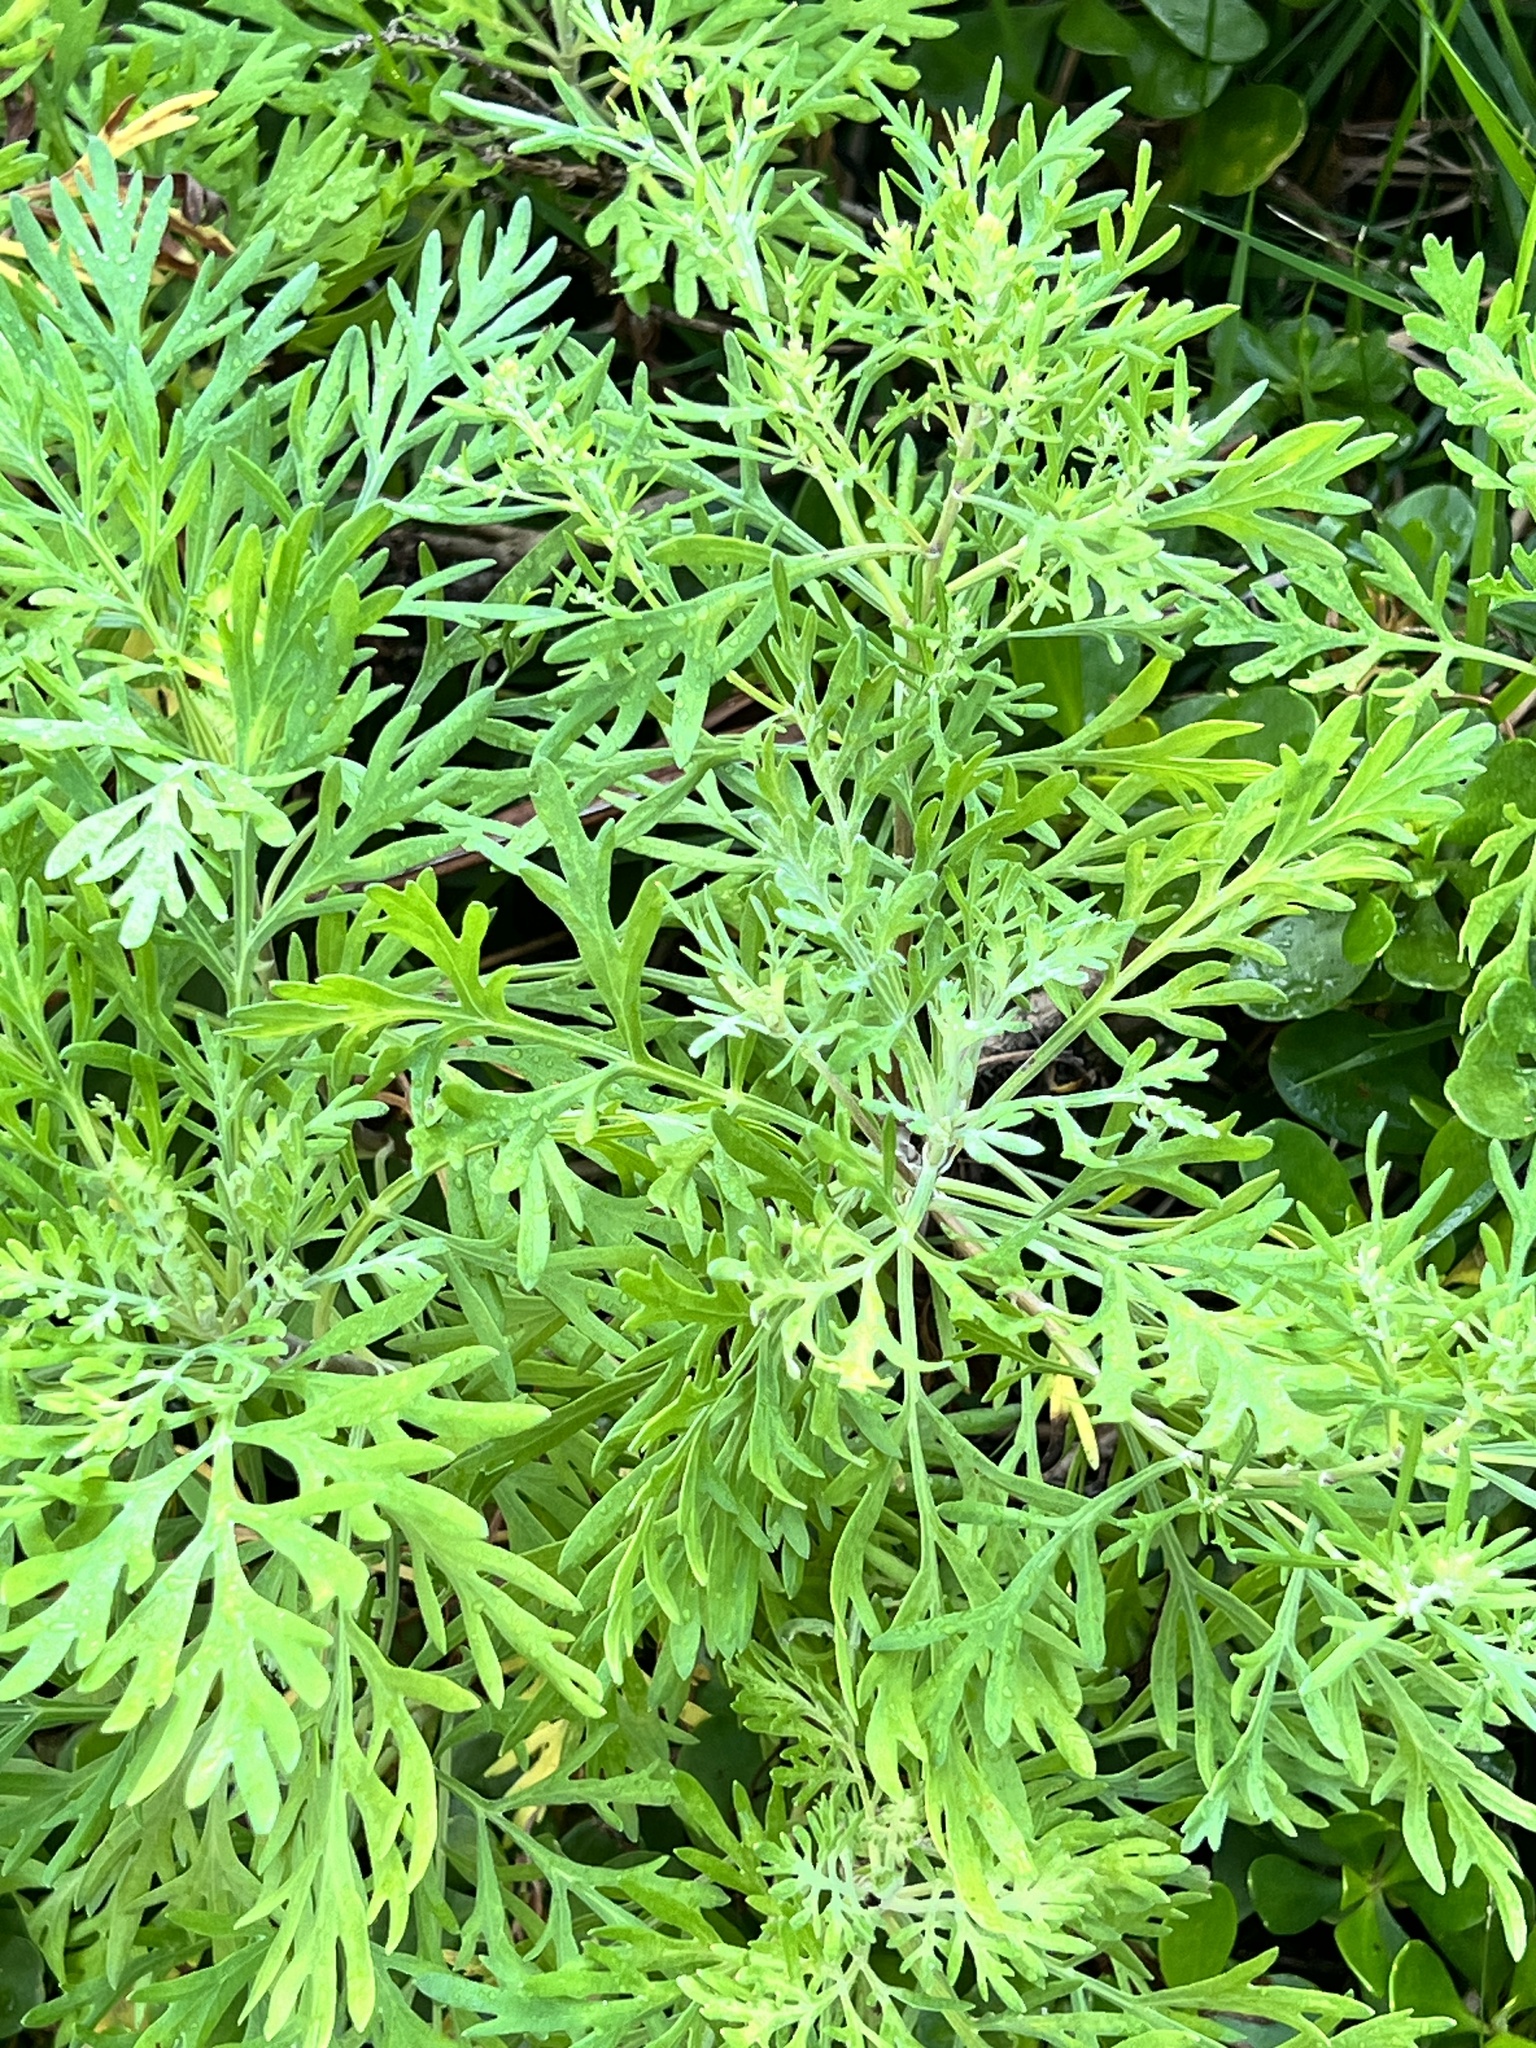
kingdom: Plantae
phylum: Tracheophyta
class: Magnoliopsida
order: Asterales
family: Asteraceae
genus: Artemisia
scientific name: Artemisia australis
